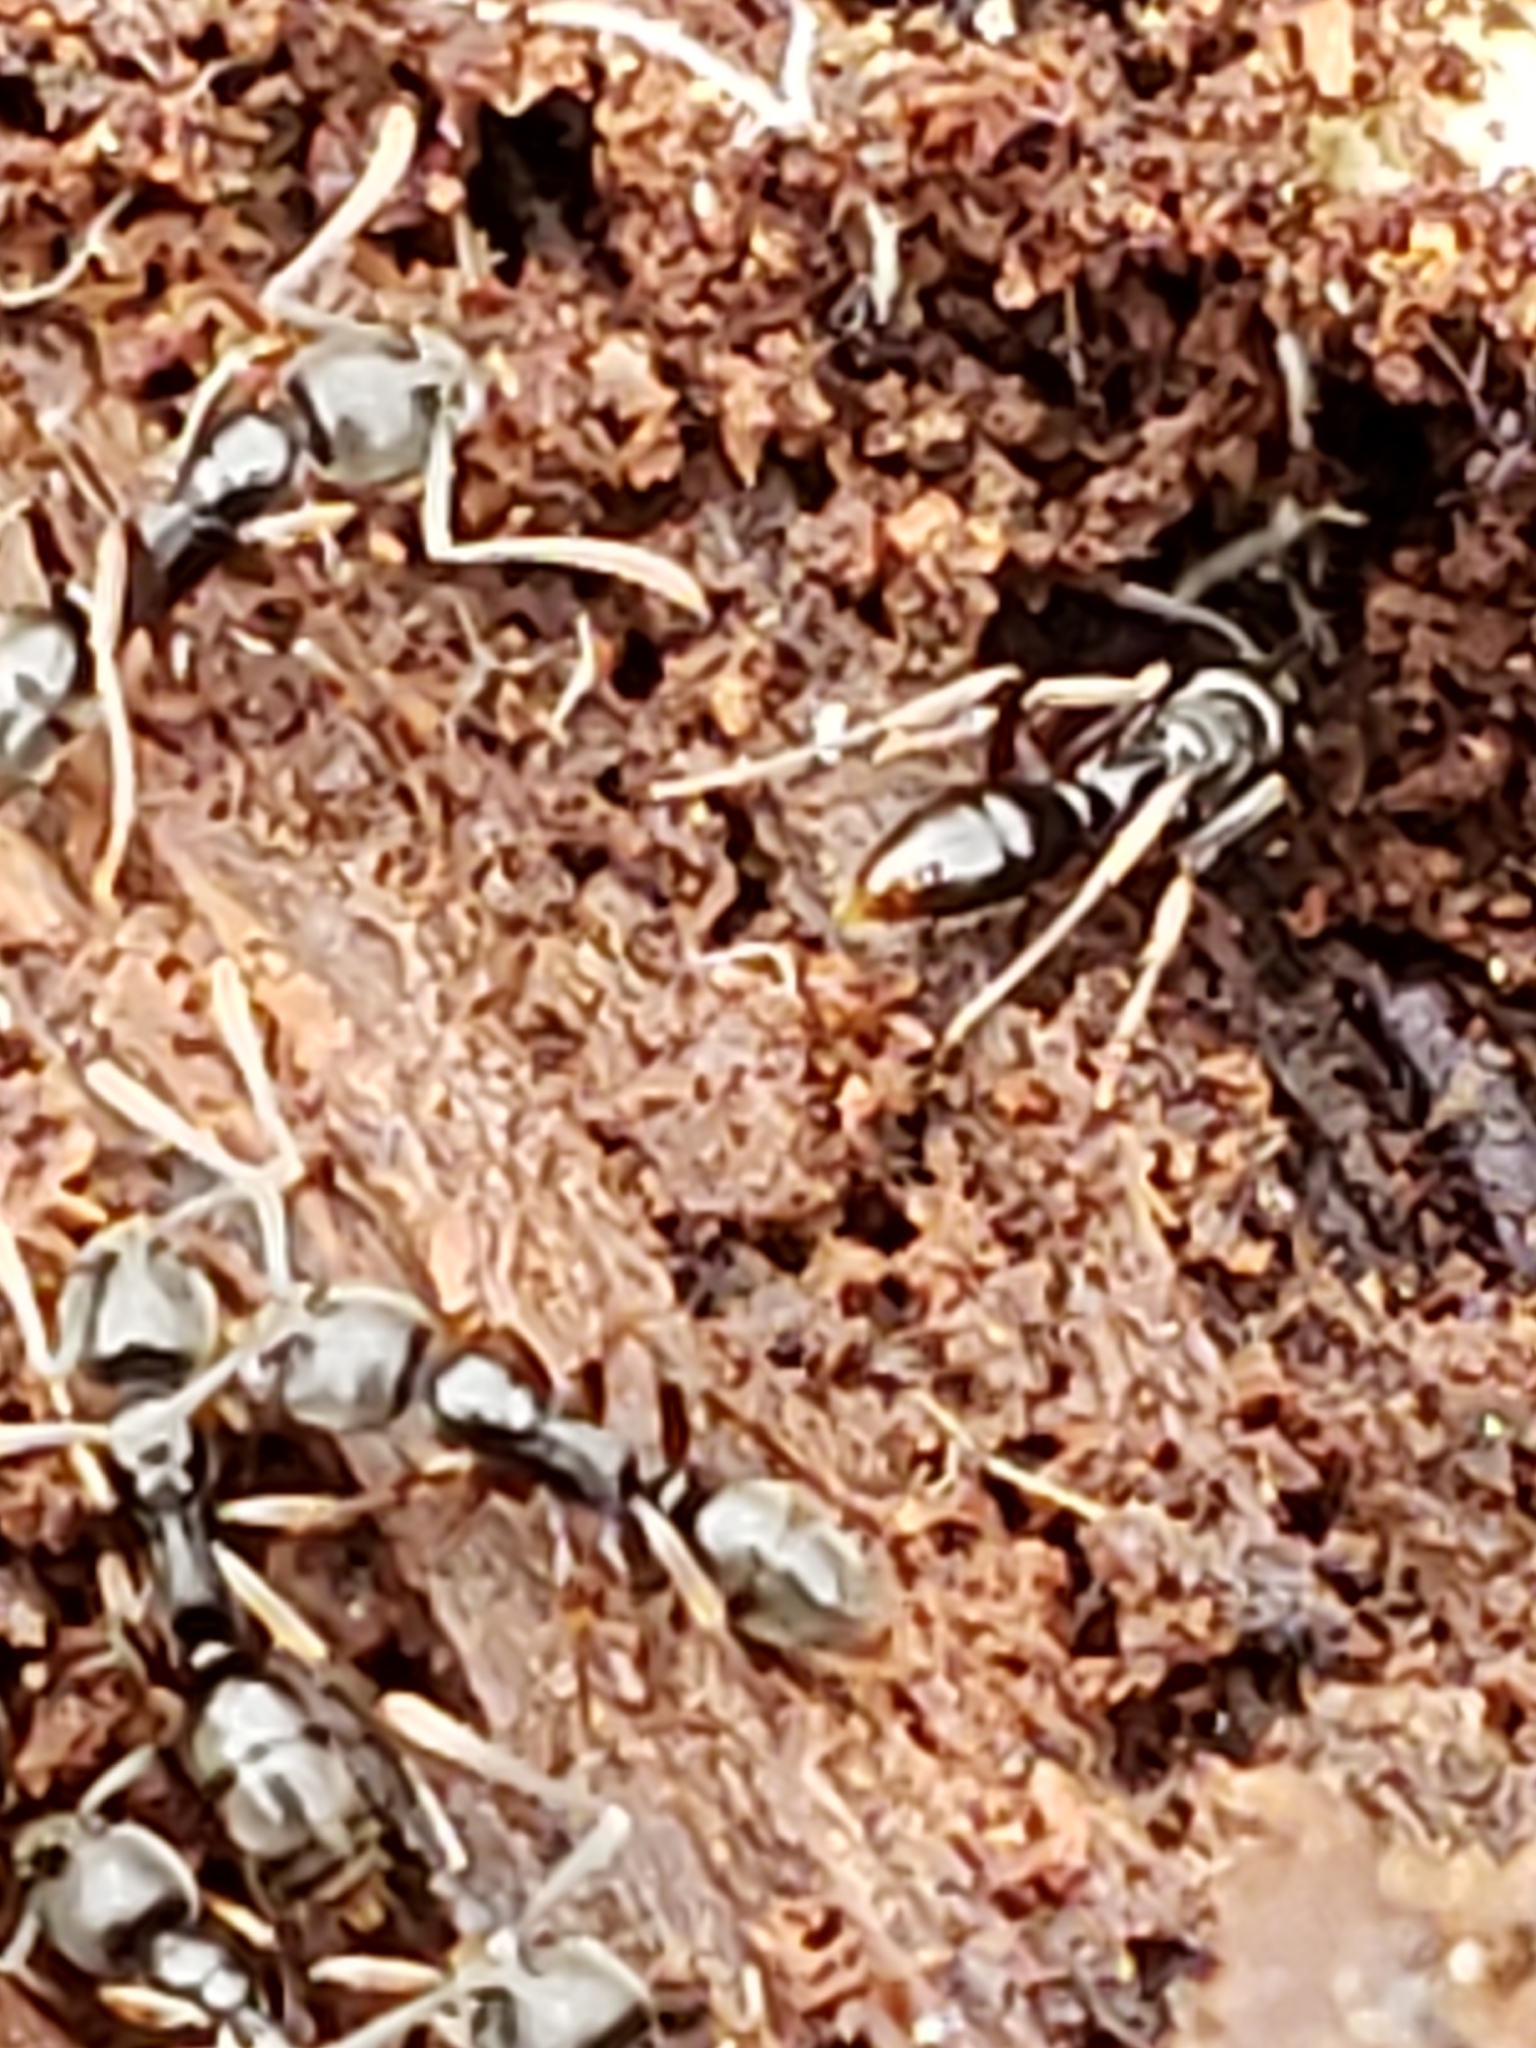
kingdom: Animalia
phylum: Arthropoda
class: Insecta
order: Hymenoptera
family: Formicidae
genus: Pachycondyla
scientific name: Pachycondyla chinensis
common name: Asian needle ant
